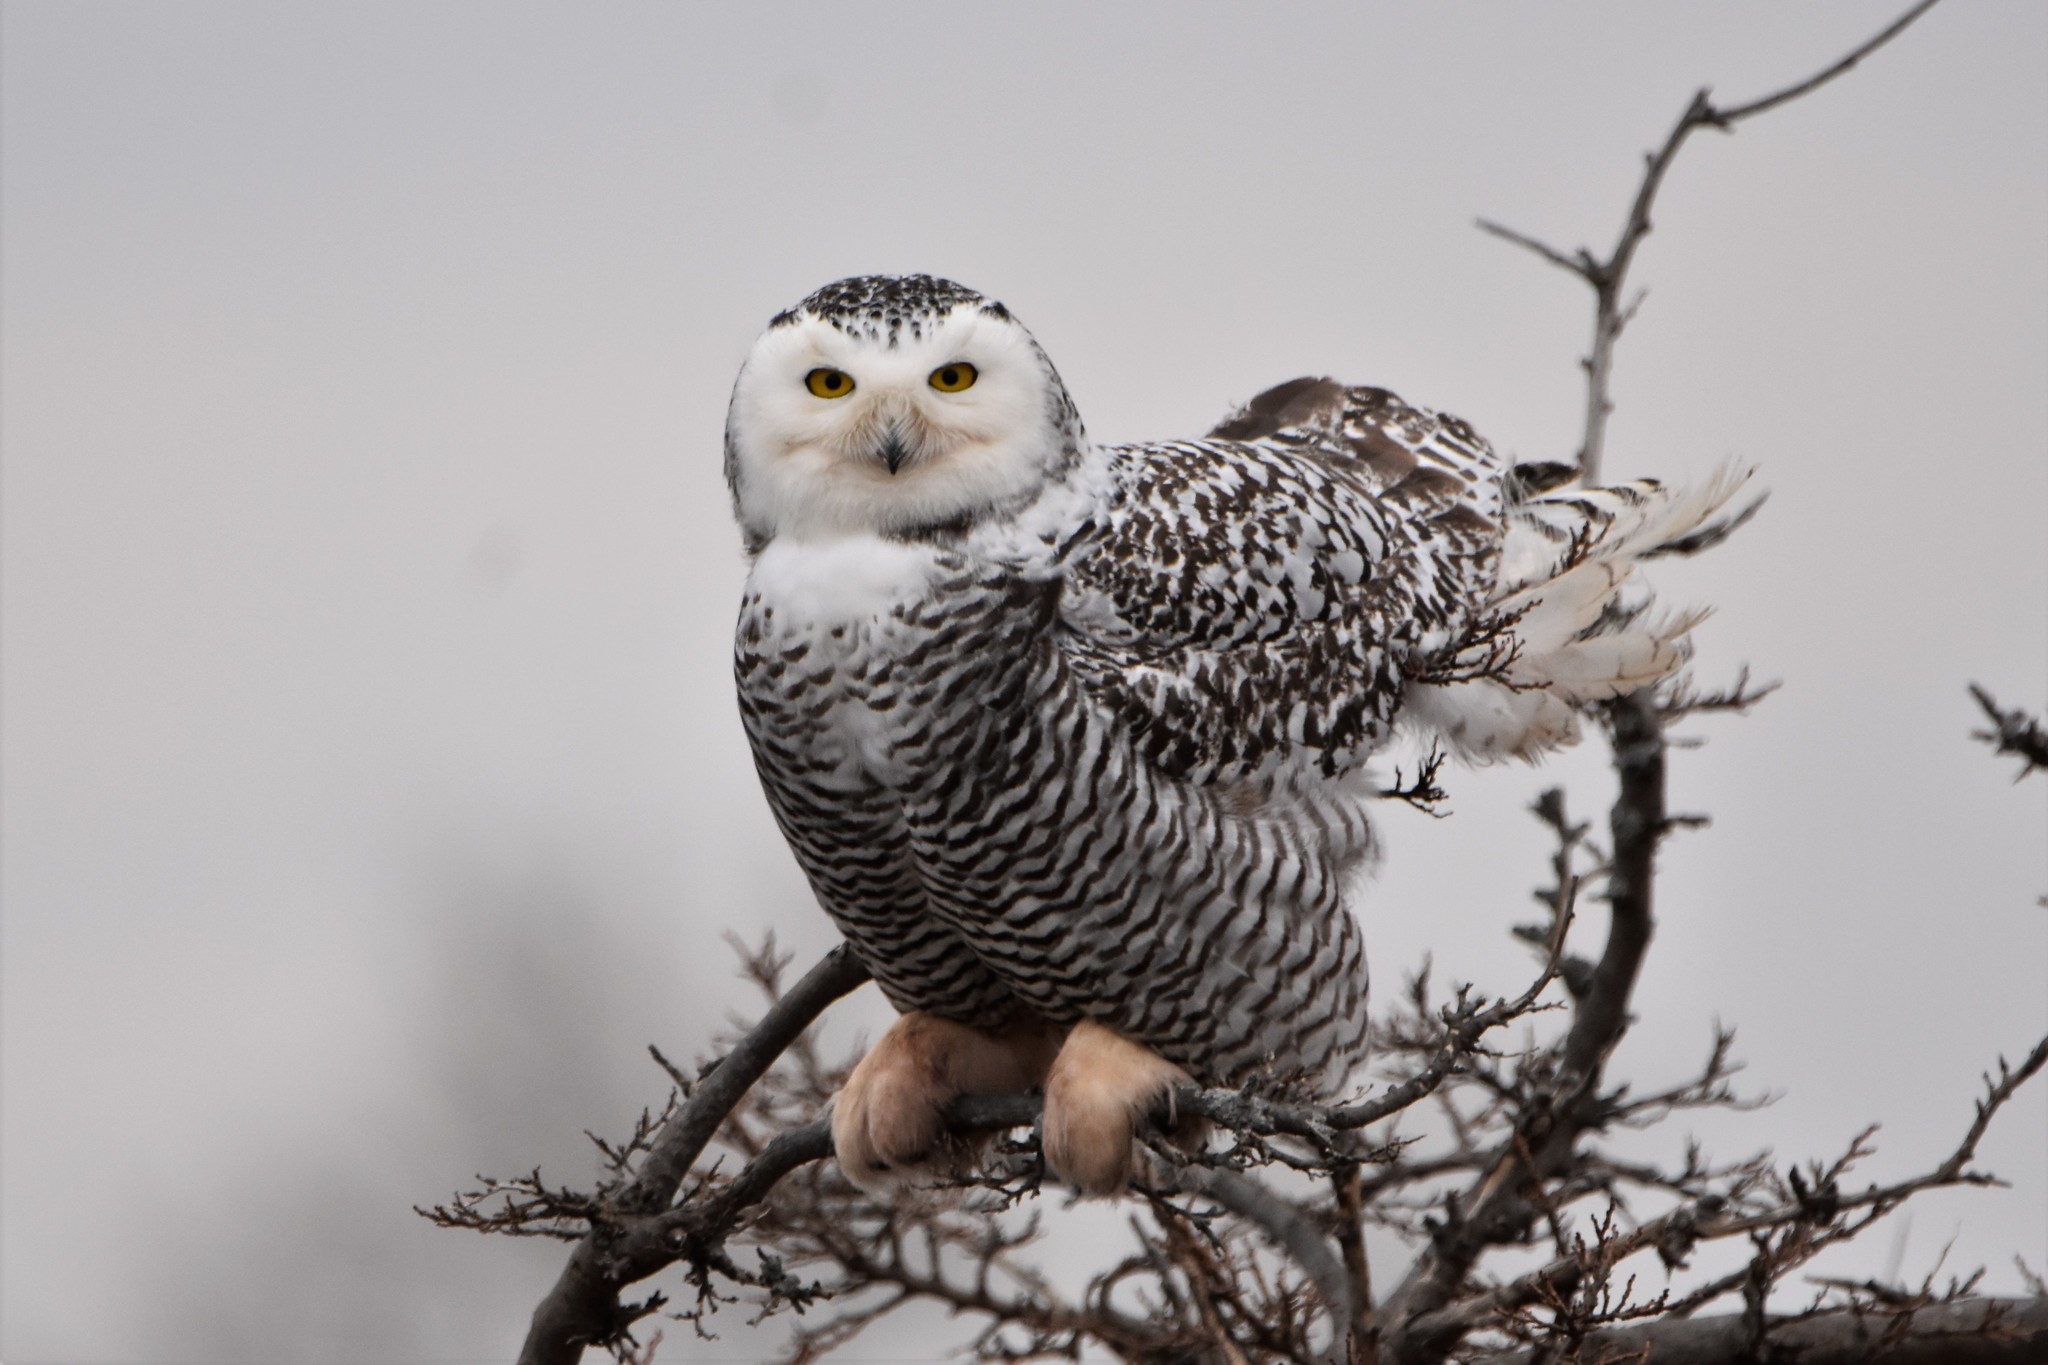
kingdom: Animalia
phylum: Chordata
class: Aves
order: Strigiformes
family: Strigidae
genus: Bubo
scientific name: Bubo scandiacus
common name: Snowy owl
